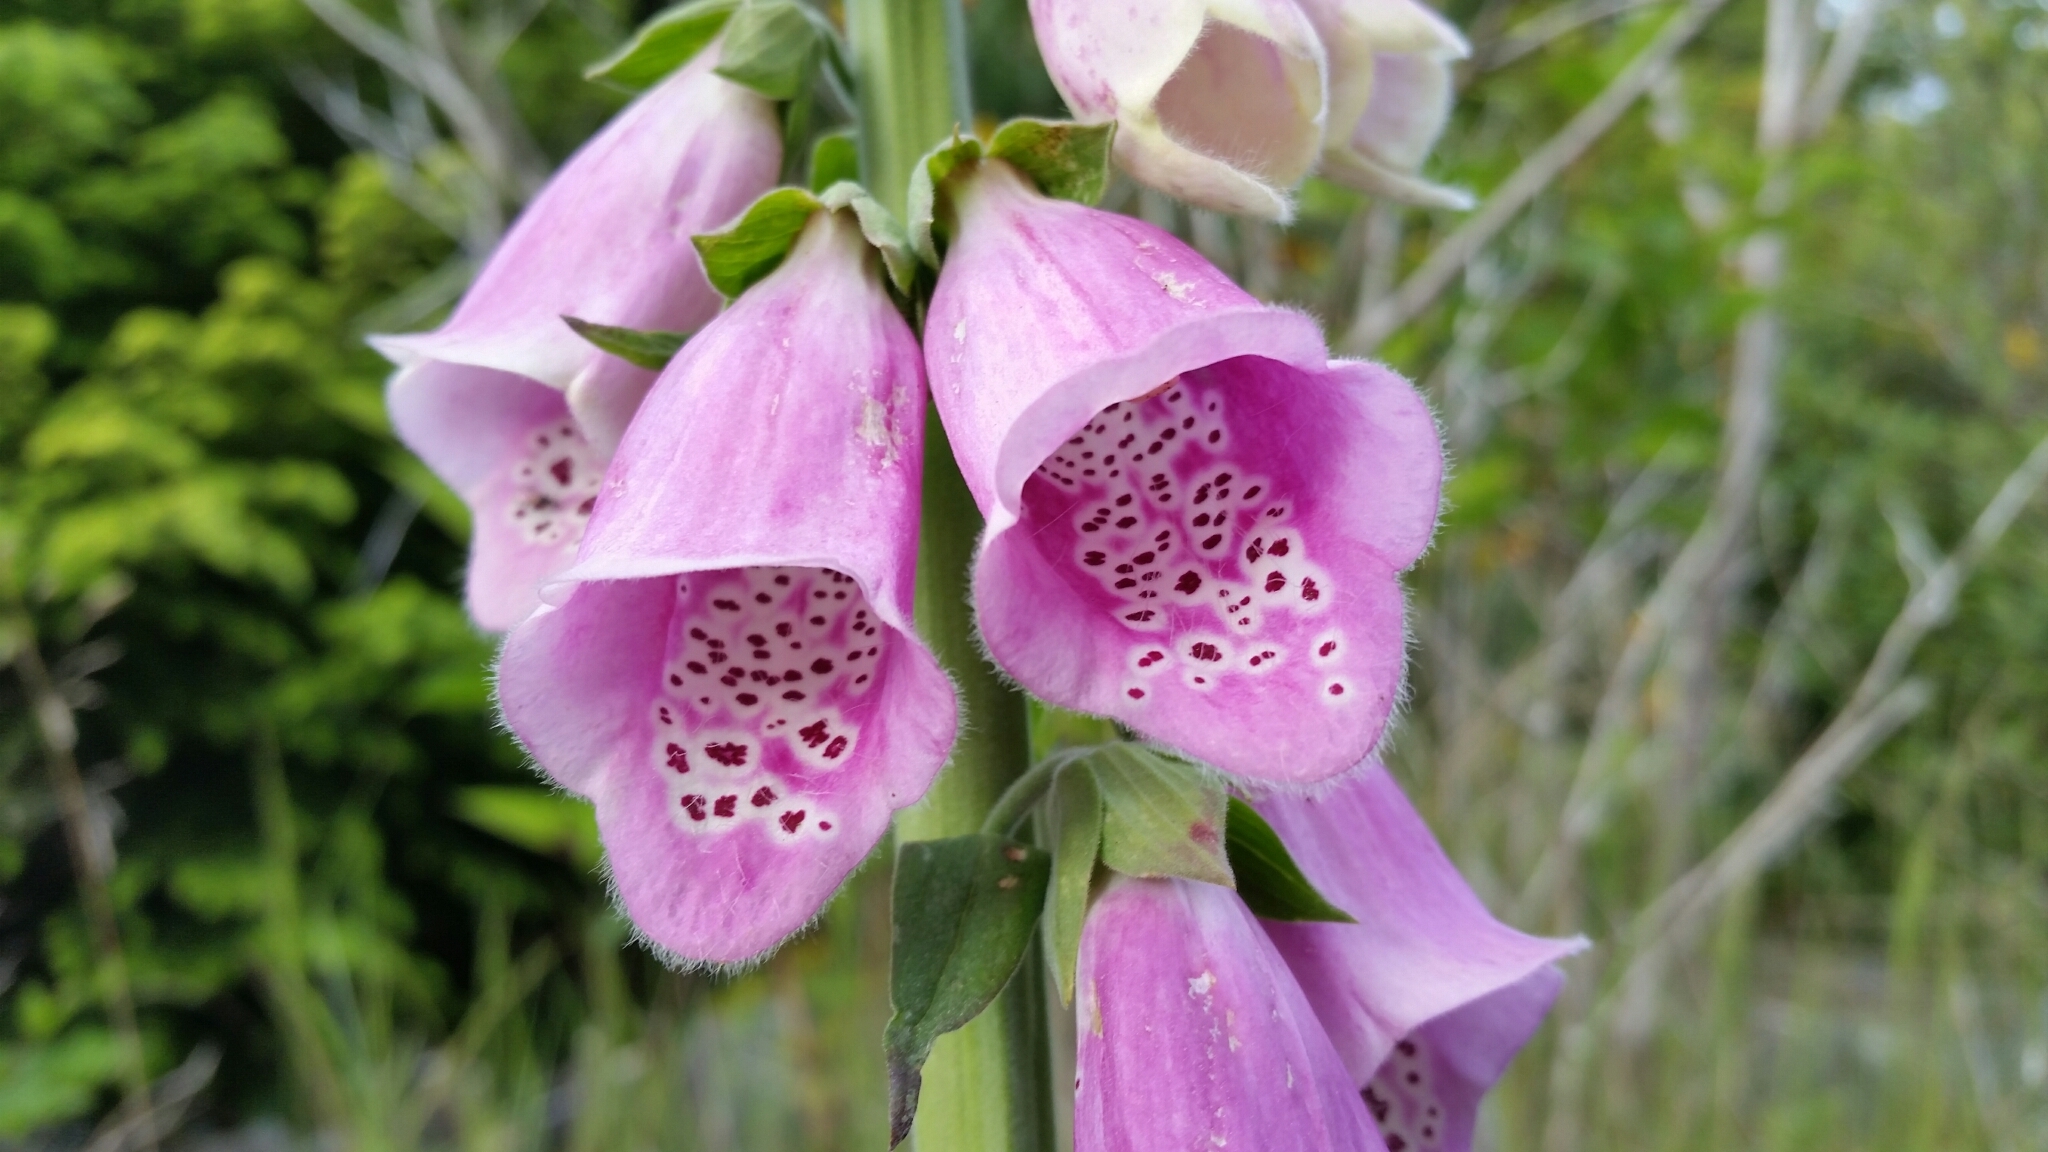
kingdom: Plantae
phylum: Tracheophyta
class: Magnoliopsida
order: Lamiales
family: Plantaginaceae
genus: Digitalis
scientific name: Digitalis purpurea
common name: Foxglove
